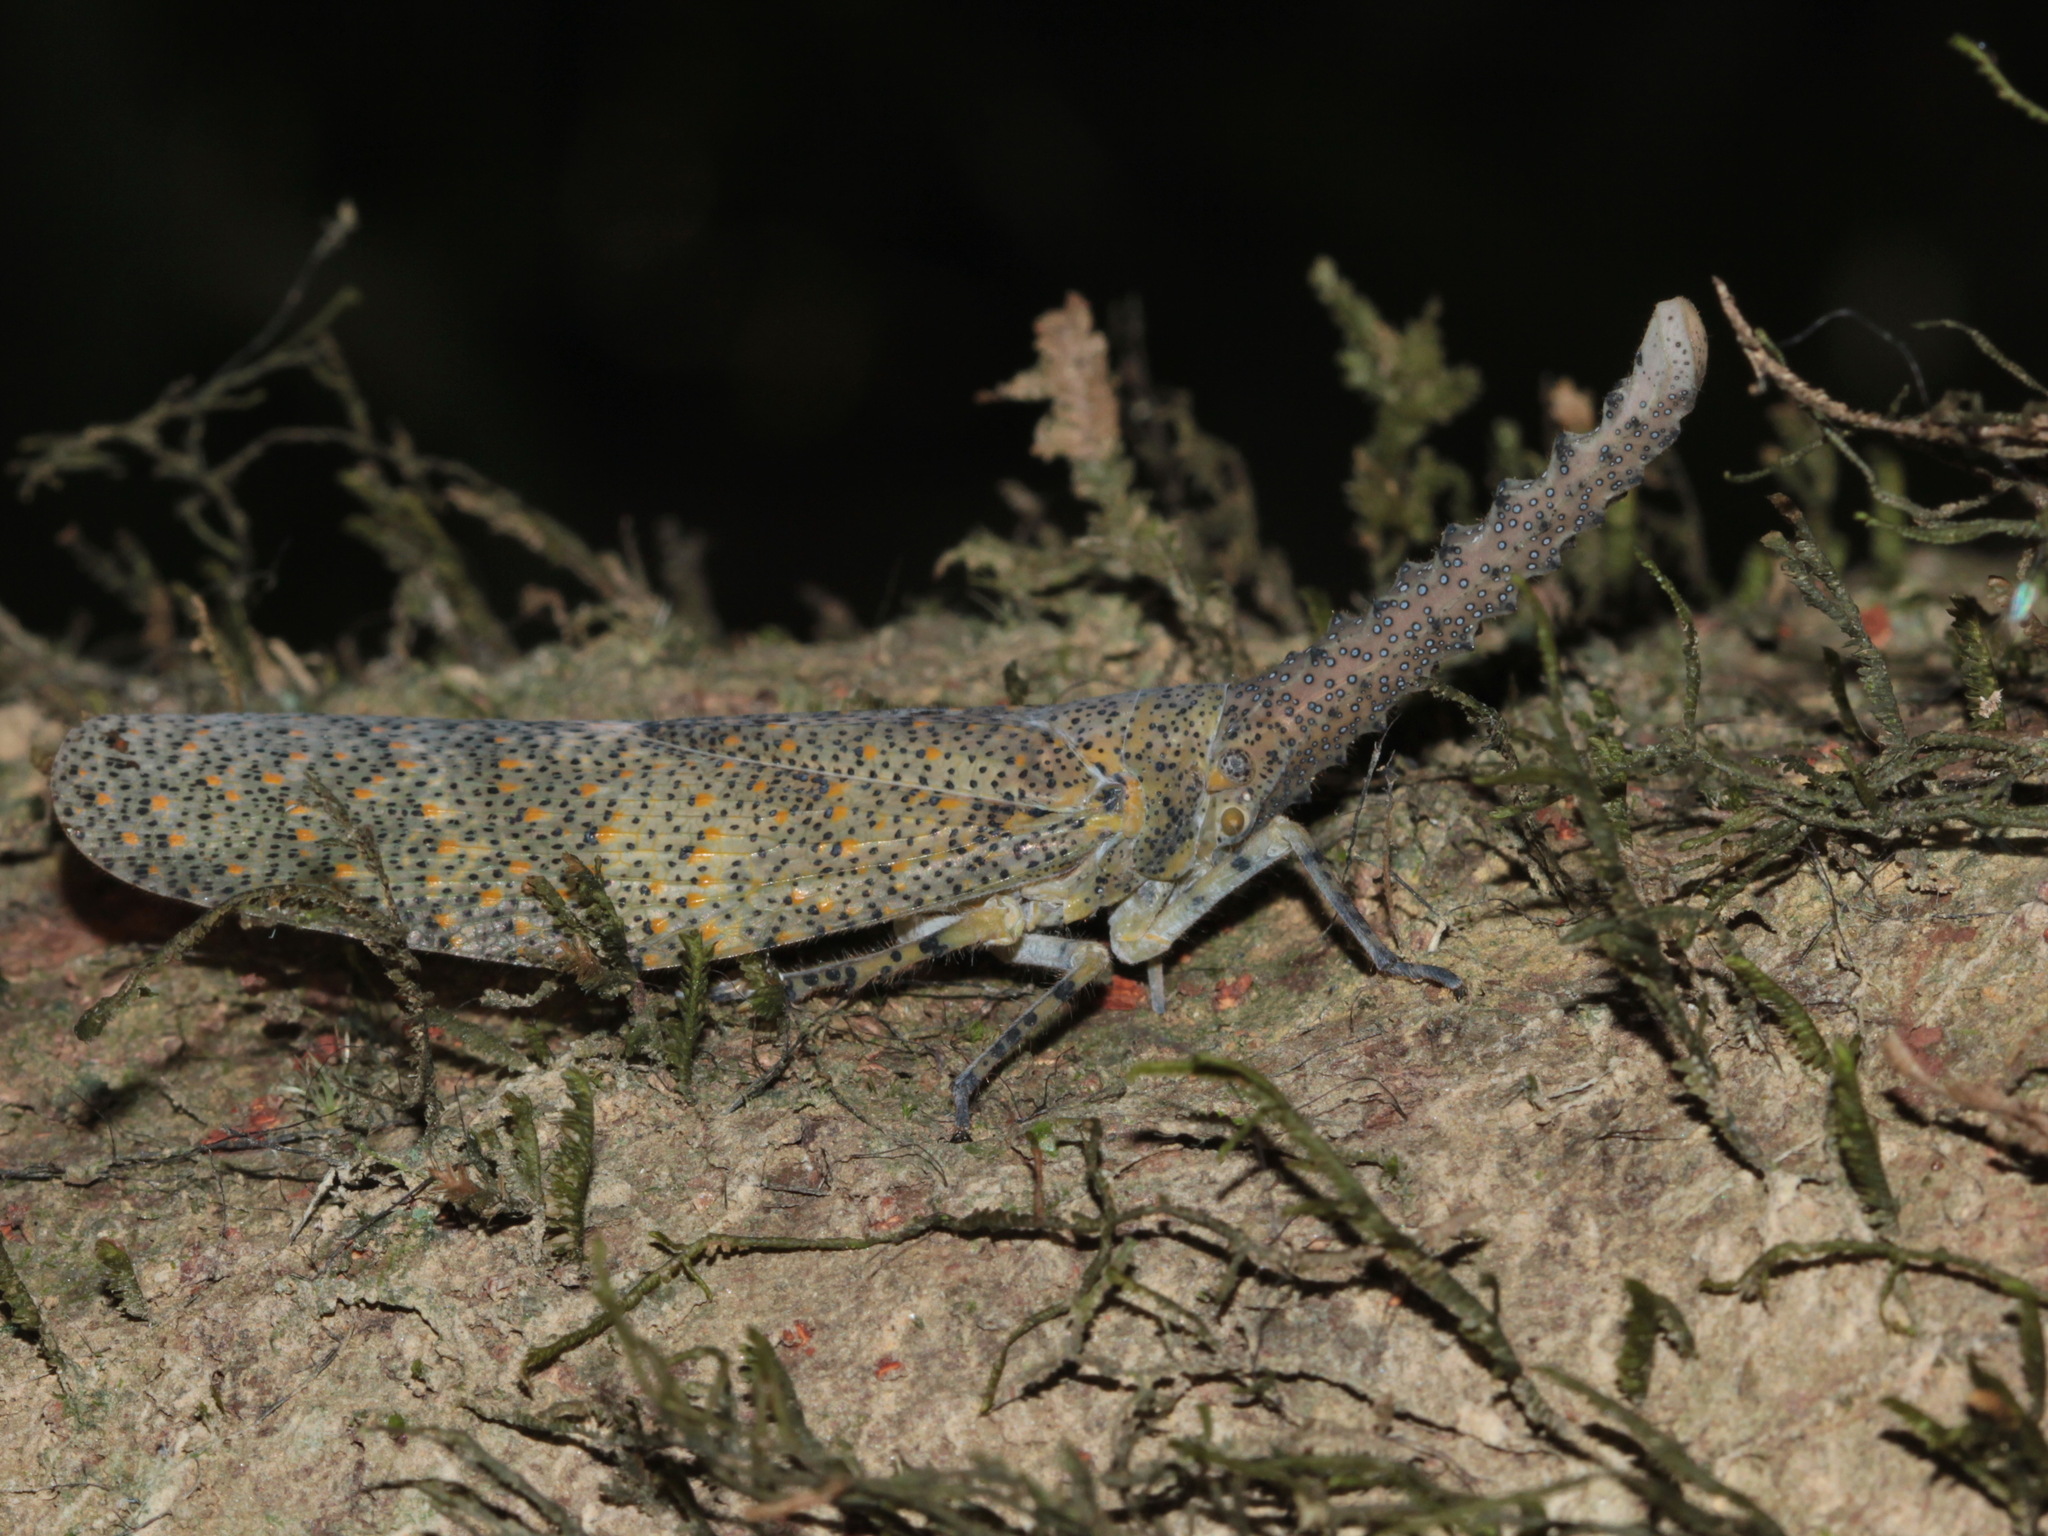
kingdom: Animalia
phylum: Arthropoda
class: Insecta
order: Hemiptera
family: Fulgoridae
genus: Zanna
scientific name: Zanna terminalis
